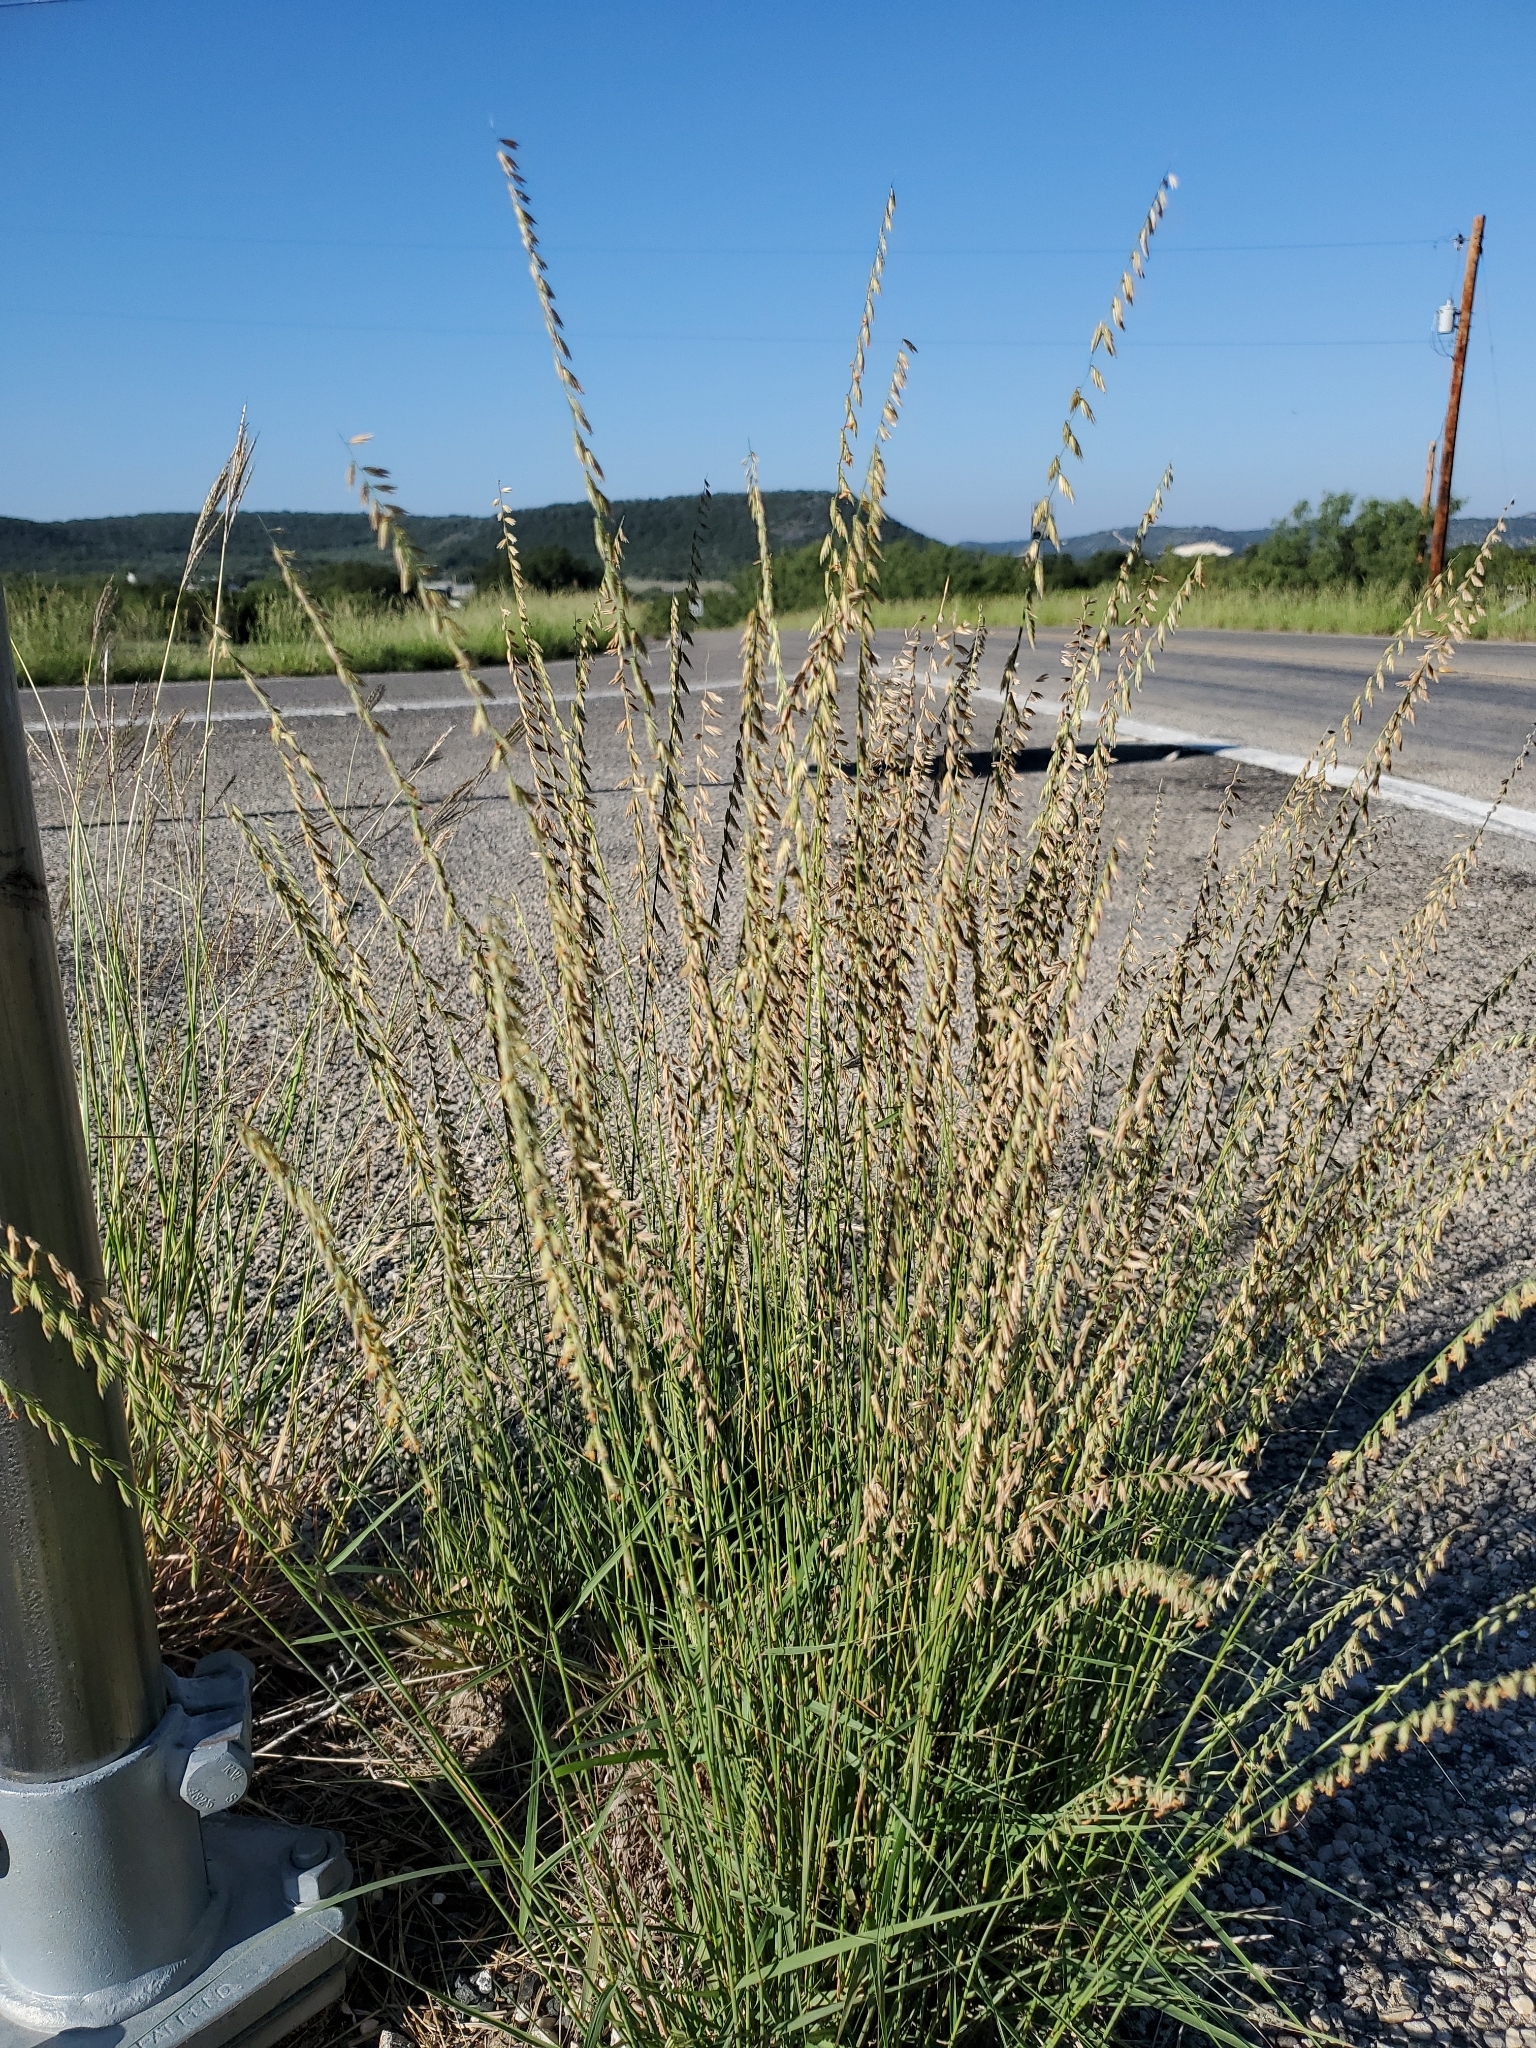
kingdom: Plantae
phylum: Tracheophyta
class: Liliopsida
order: Poales
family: Poaceae
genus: Bouteloua
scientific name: Bouteloua curtipendula
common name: Side-oats grama
